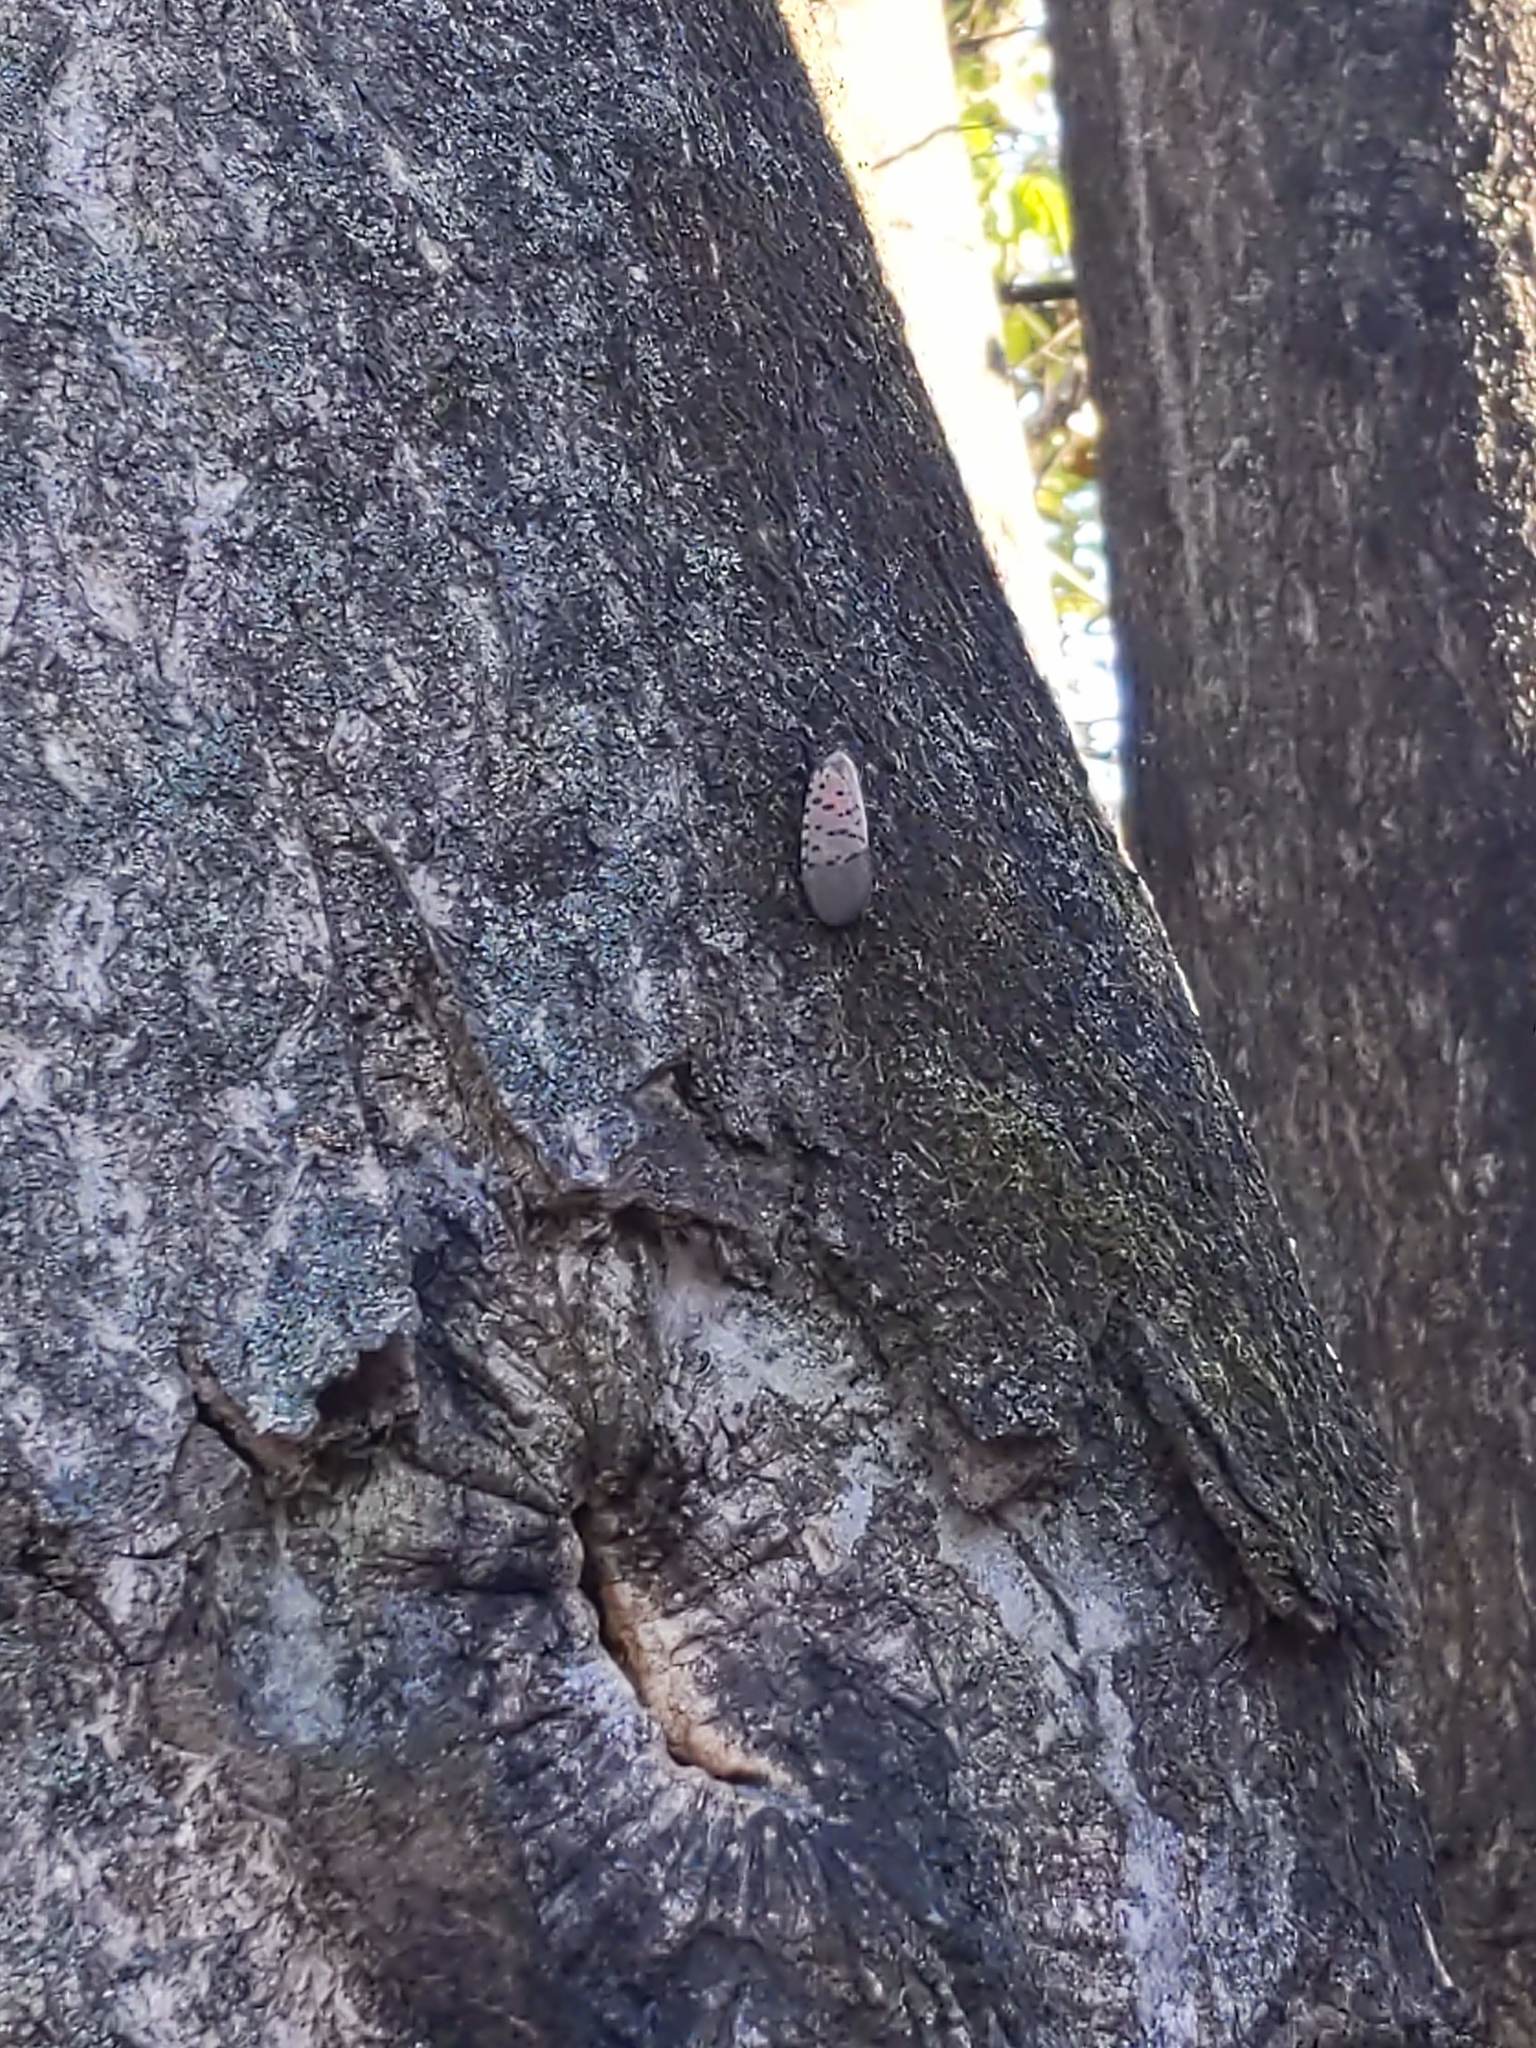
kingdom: Animalia
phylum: Arthropoda
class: Insecta
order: Hemiptera
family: Fulgoridae
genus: Lycorma
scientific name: Lycorma delicatula
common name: Spotted lanternfly
